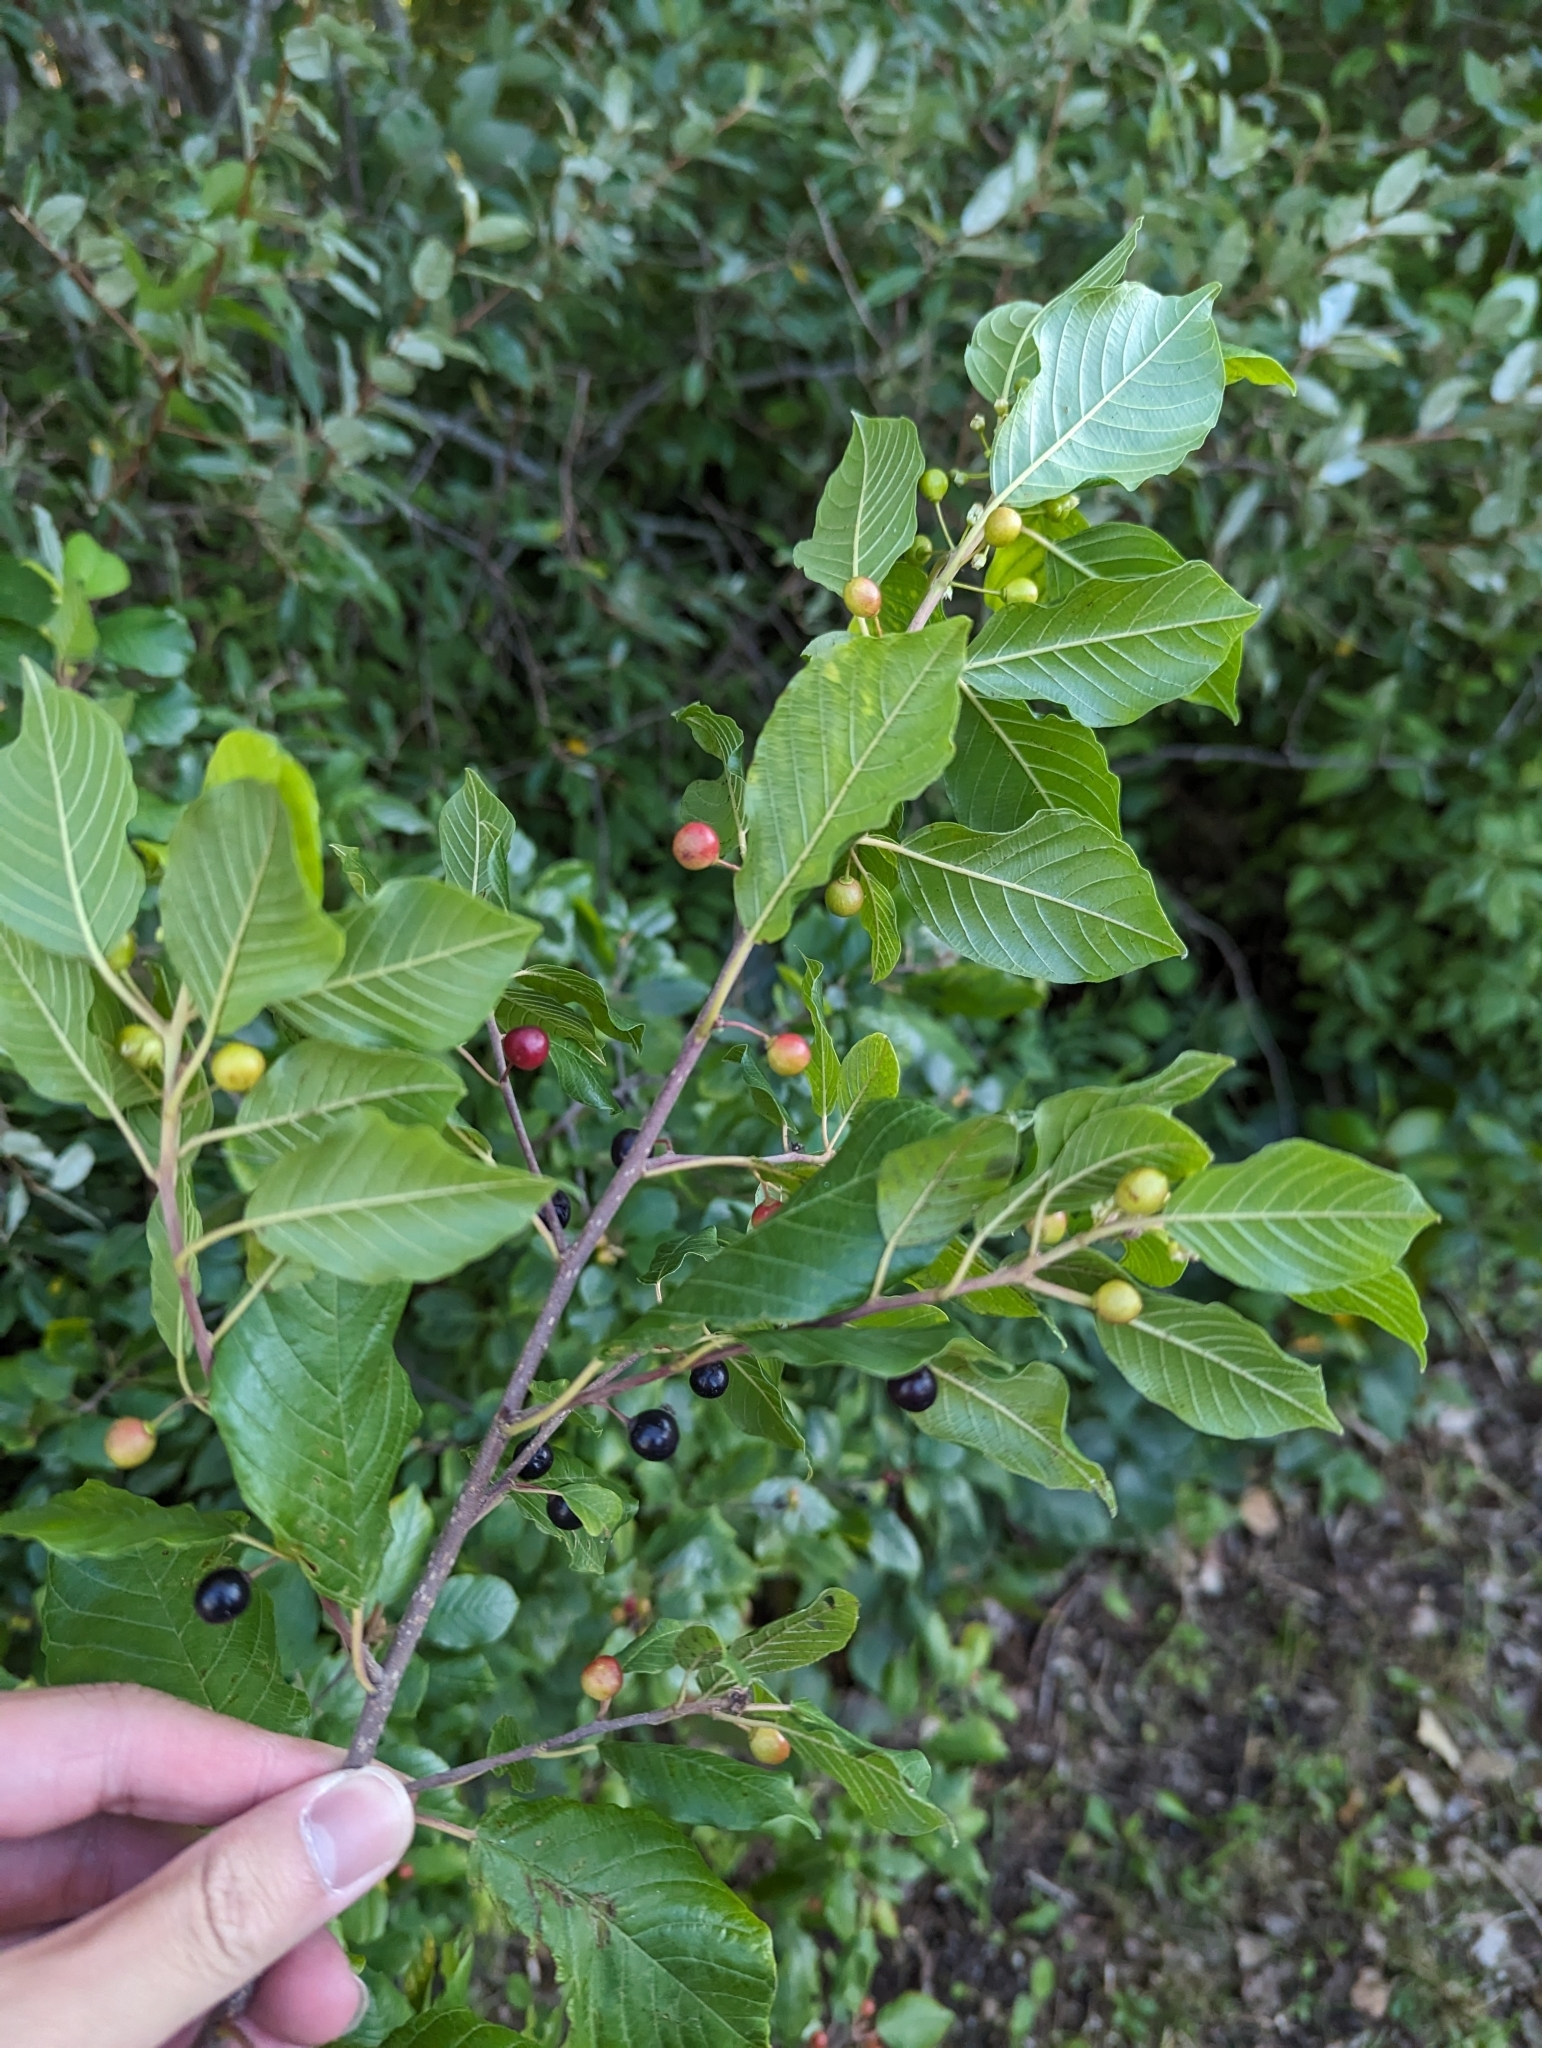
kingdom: Plantae
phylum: Tracheophyta
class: Magnoliopsida
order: Rosales
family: Rhamnaceae
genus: Frangula
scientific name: Frangula alnus
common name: Alder buckthorn
